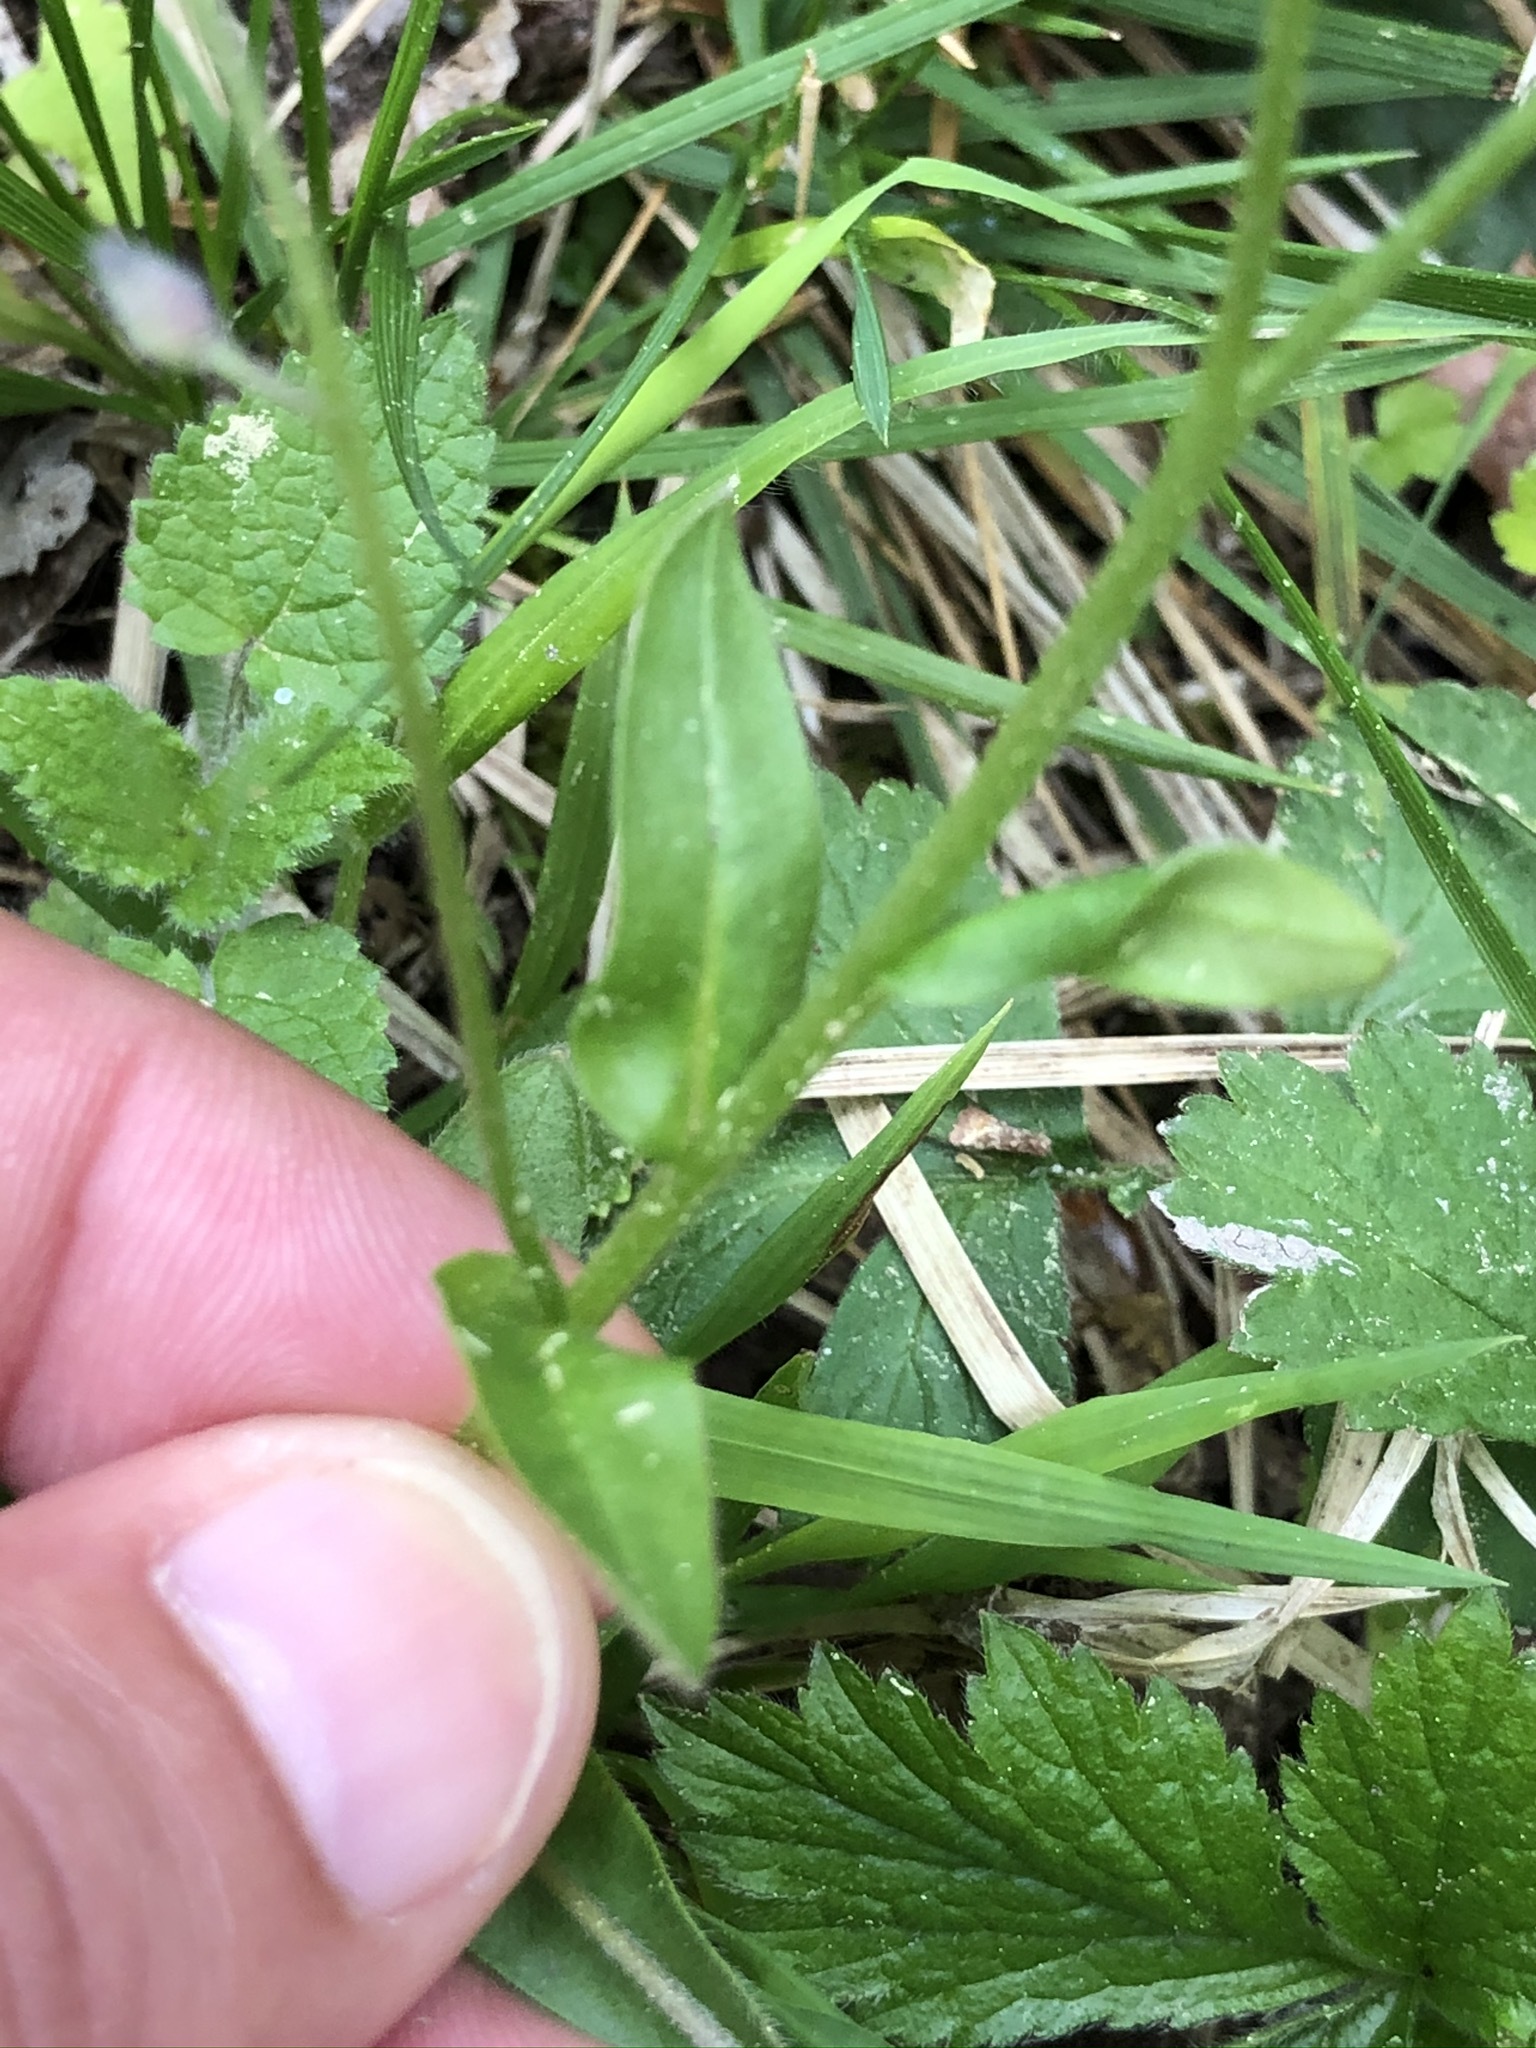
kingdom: Plantae
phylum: Tracheophyta
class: Magnoliopsida
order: Boraginales
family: Boraginaceae
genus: Myosotis
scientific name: Myosotis arvensis
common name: Field forget-me-not
